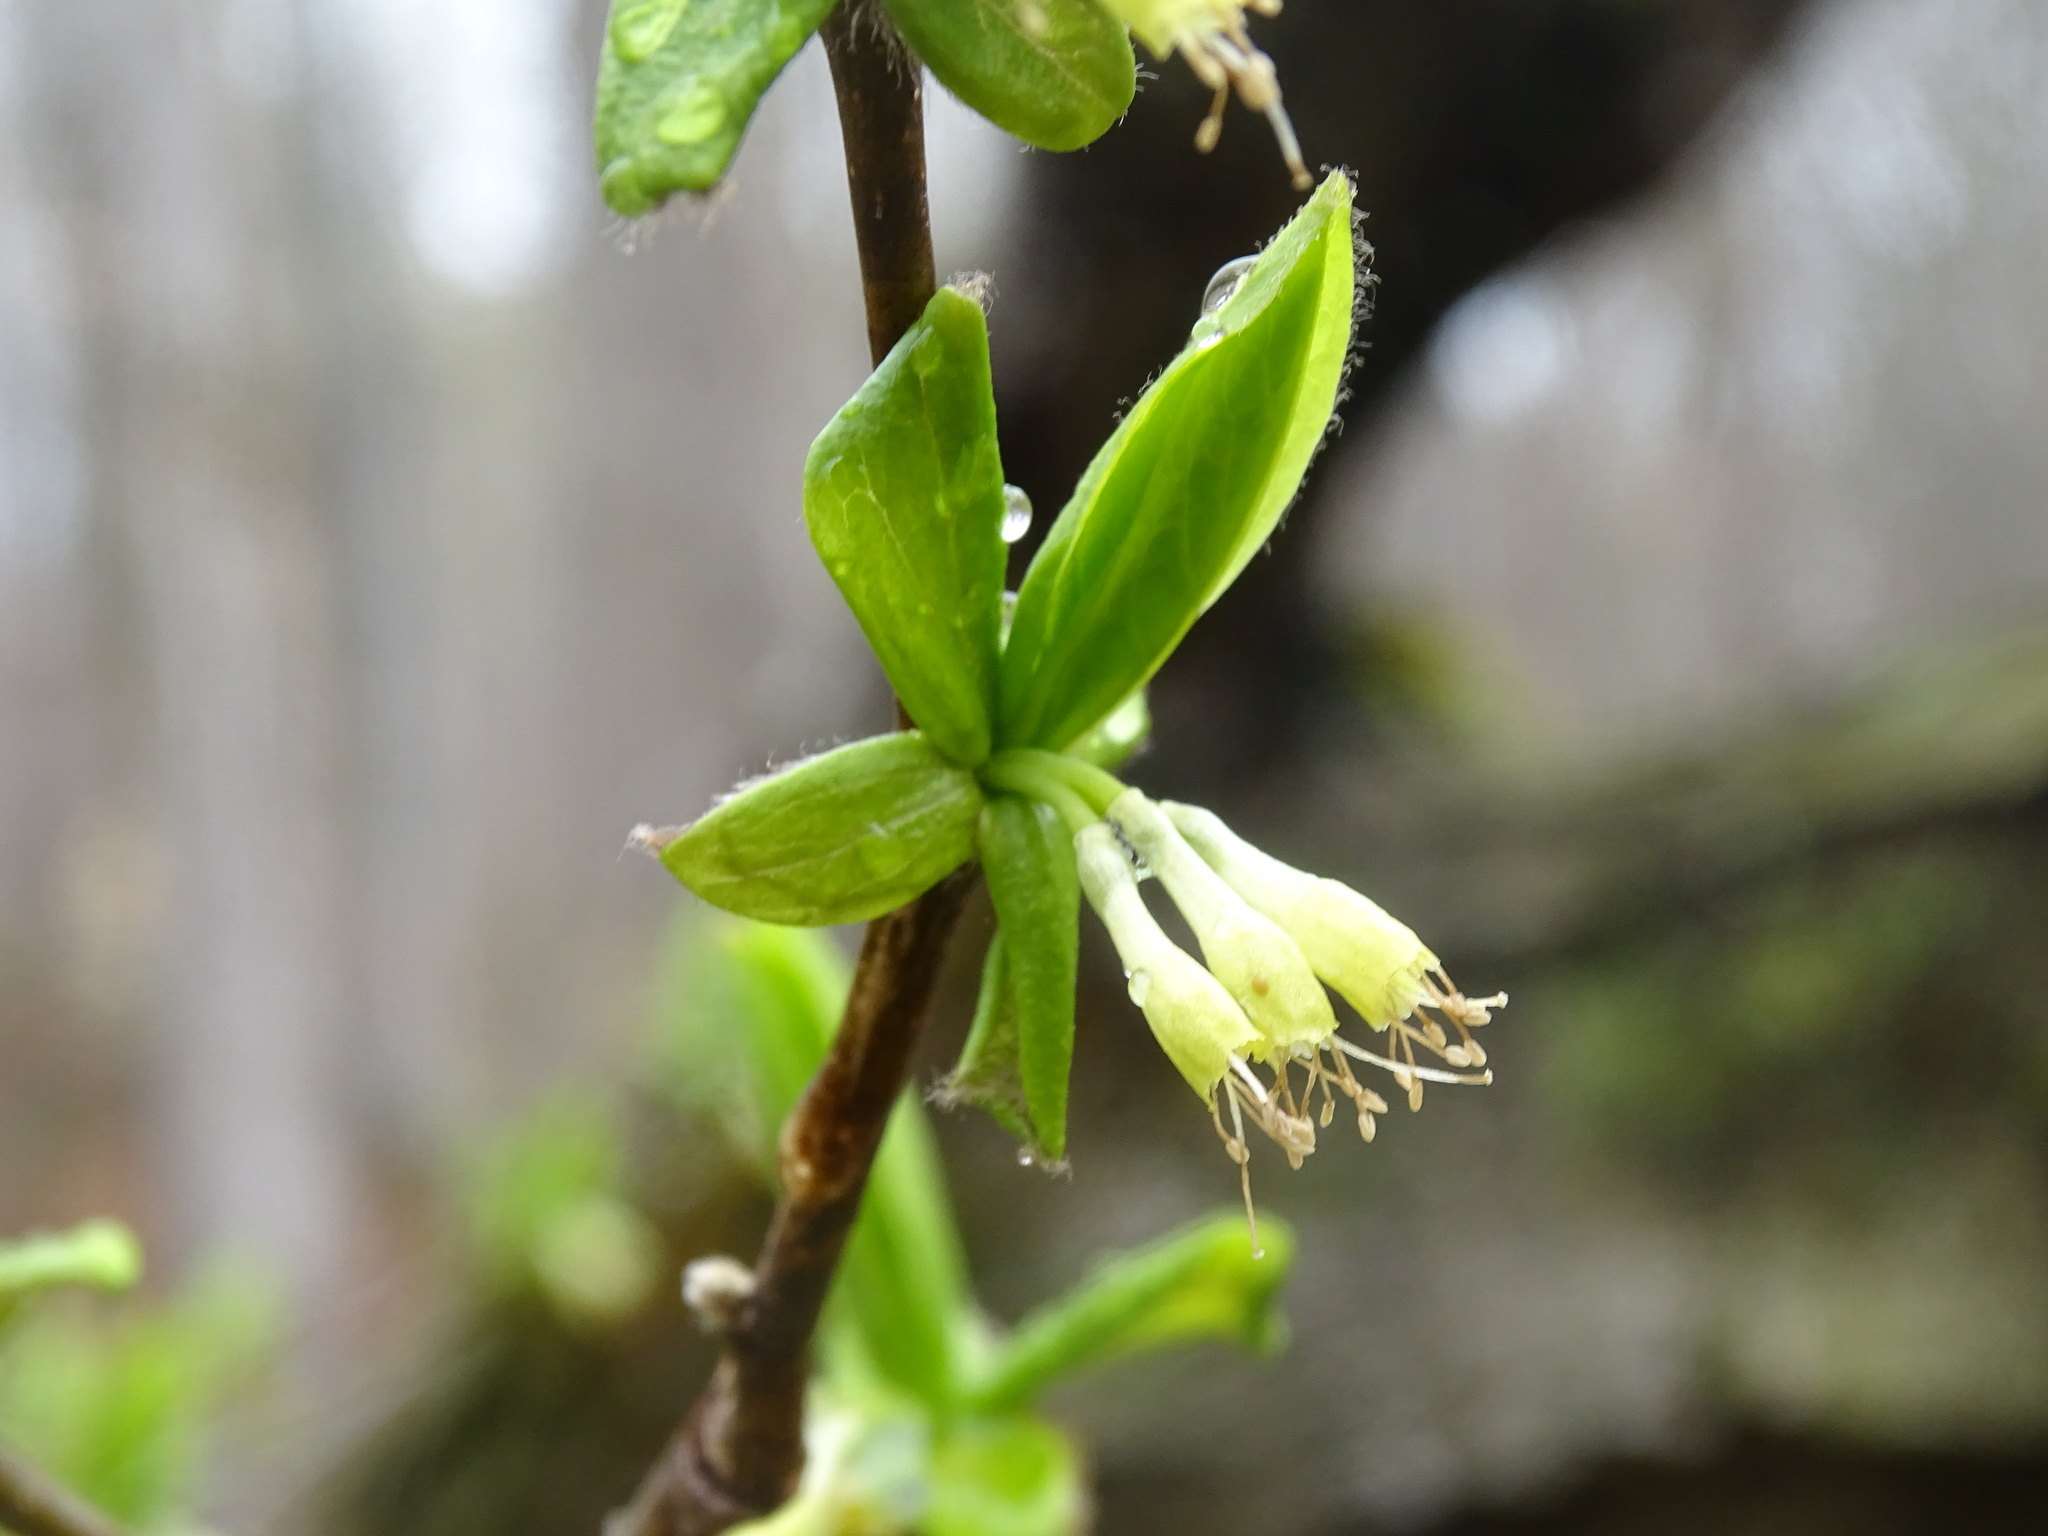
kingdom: Plantae
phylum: Tracheophyta
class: Magnoliopsida
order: Malvales
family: Thymelaeaceae
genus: Dirca
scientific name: Dirca palustris
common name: Leatherwood
